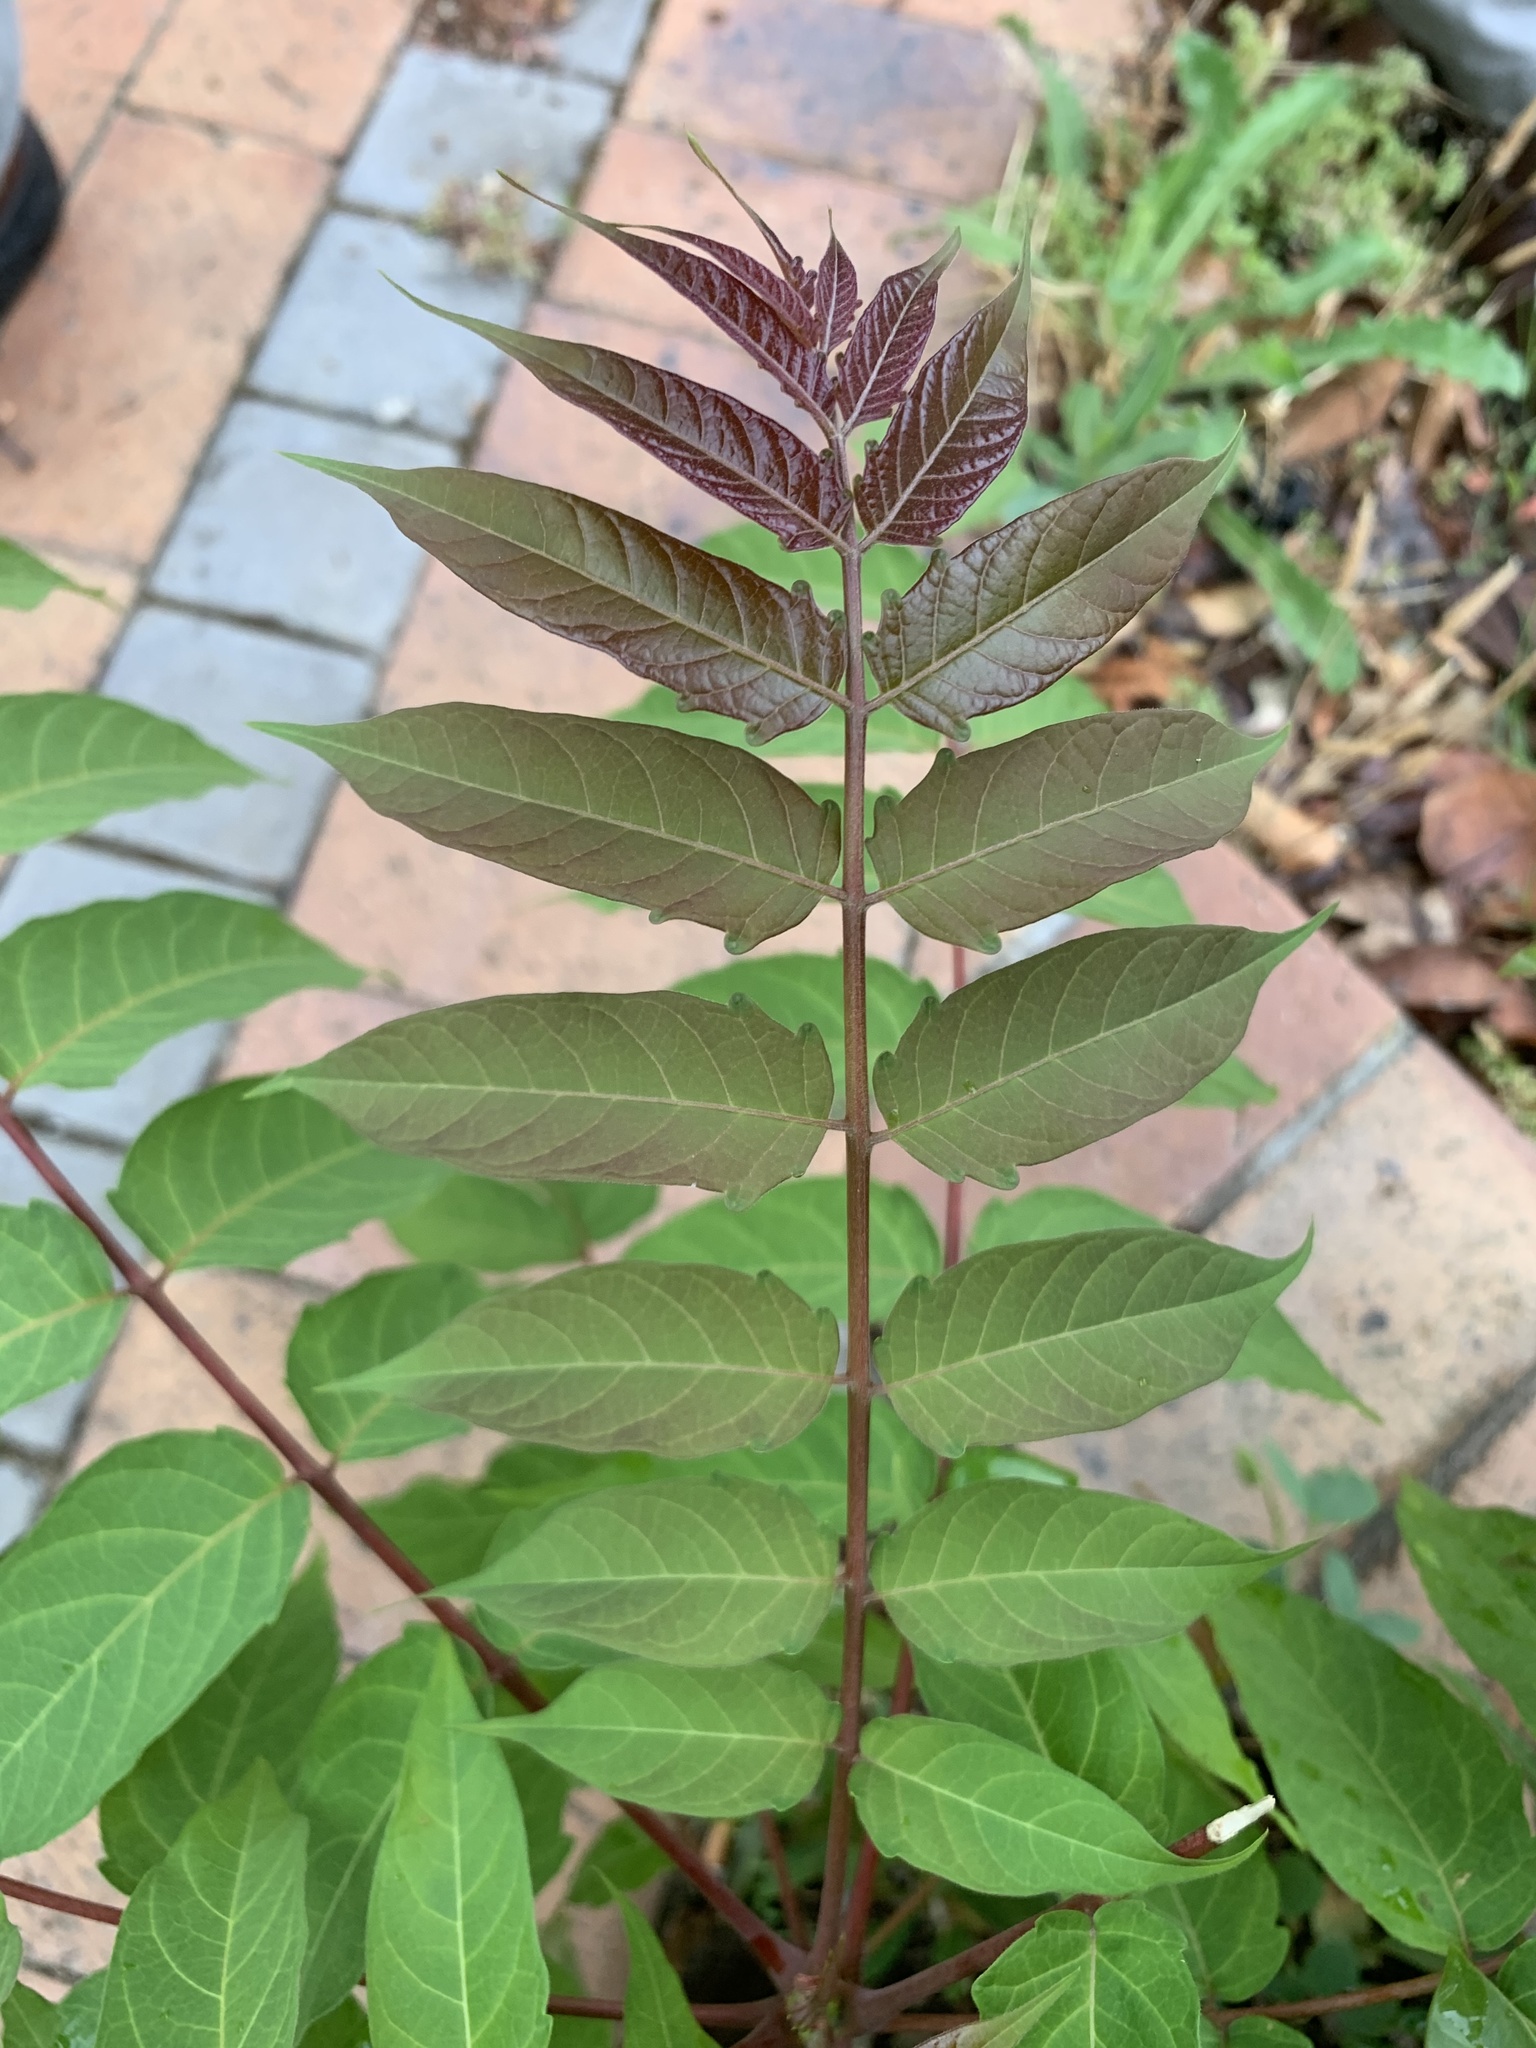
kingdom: Plantae
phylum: Tracheophyta
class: Magnoliopsida
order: Sapindales
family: Simaroubaceae
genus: Ailanthus
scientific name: Ailanthus altissima
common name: Tree-of-heaven
